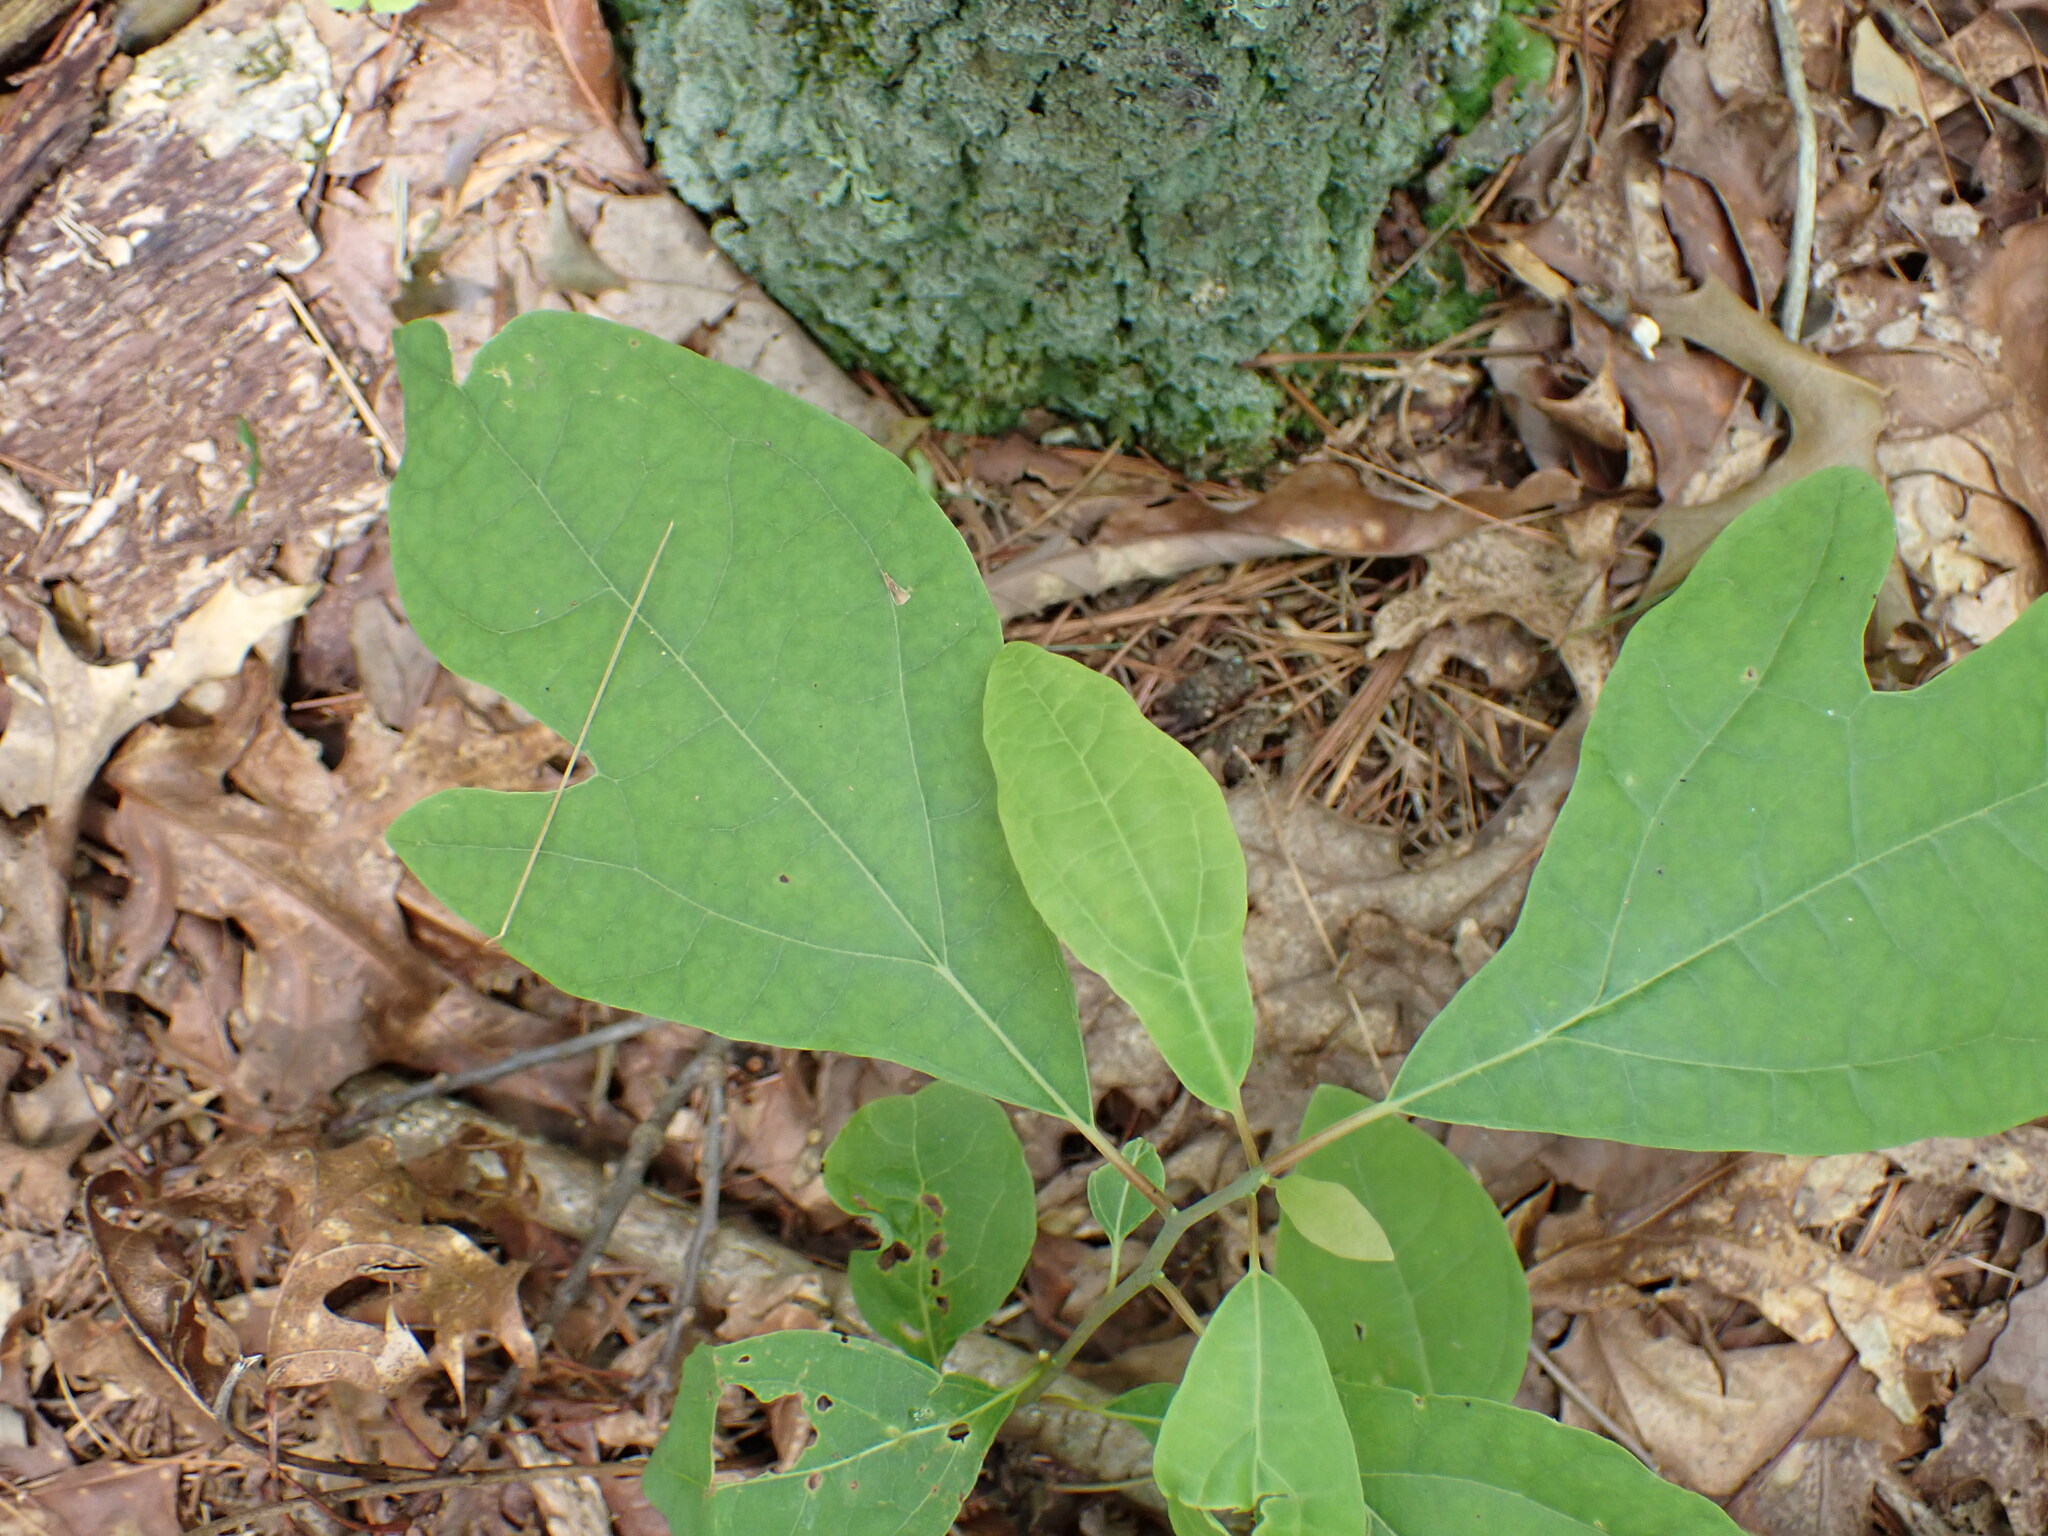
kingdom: Plantae
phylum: Tracheophyta
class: Magnoliopsida
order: Laurales
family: Lauraceae
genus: Sassafras
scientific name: Sassafras albidum
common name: Sassafras
